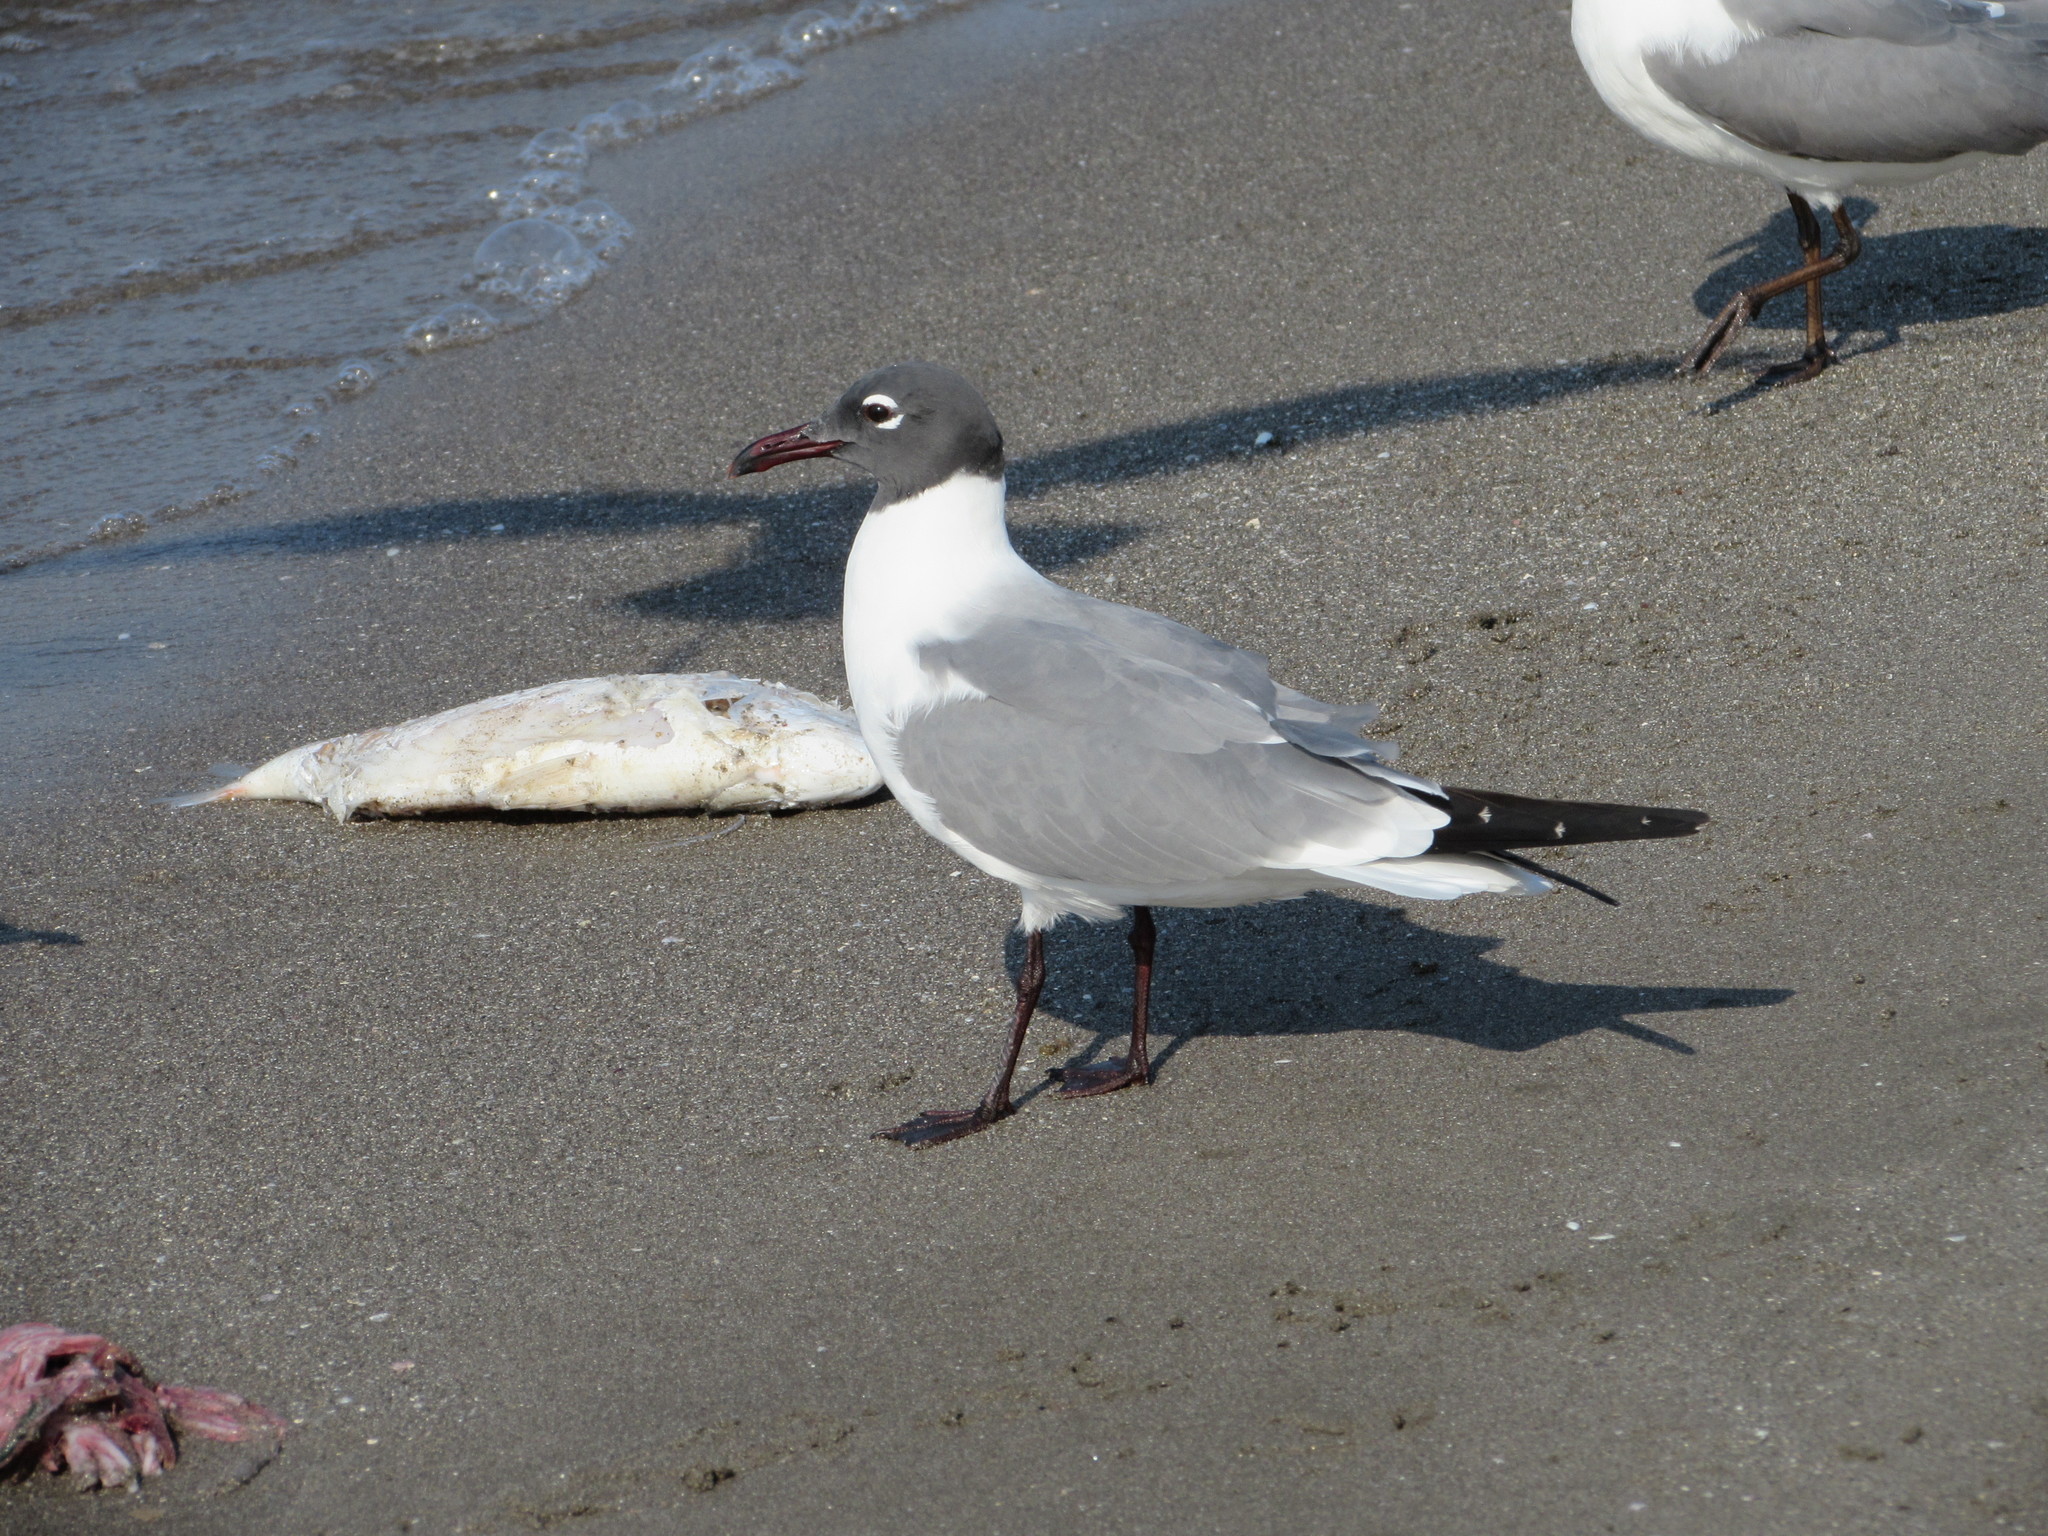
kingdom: Animalia
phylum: Chordata
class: Aves
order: Charadriiformes
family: Laridae
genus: Leucophaeus
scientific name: Leucophaeus atricilla
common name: Laughing gull
